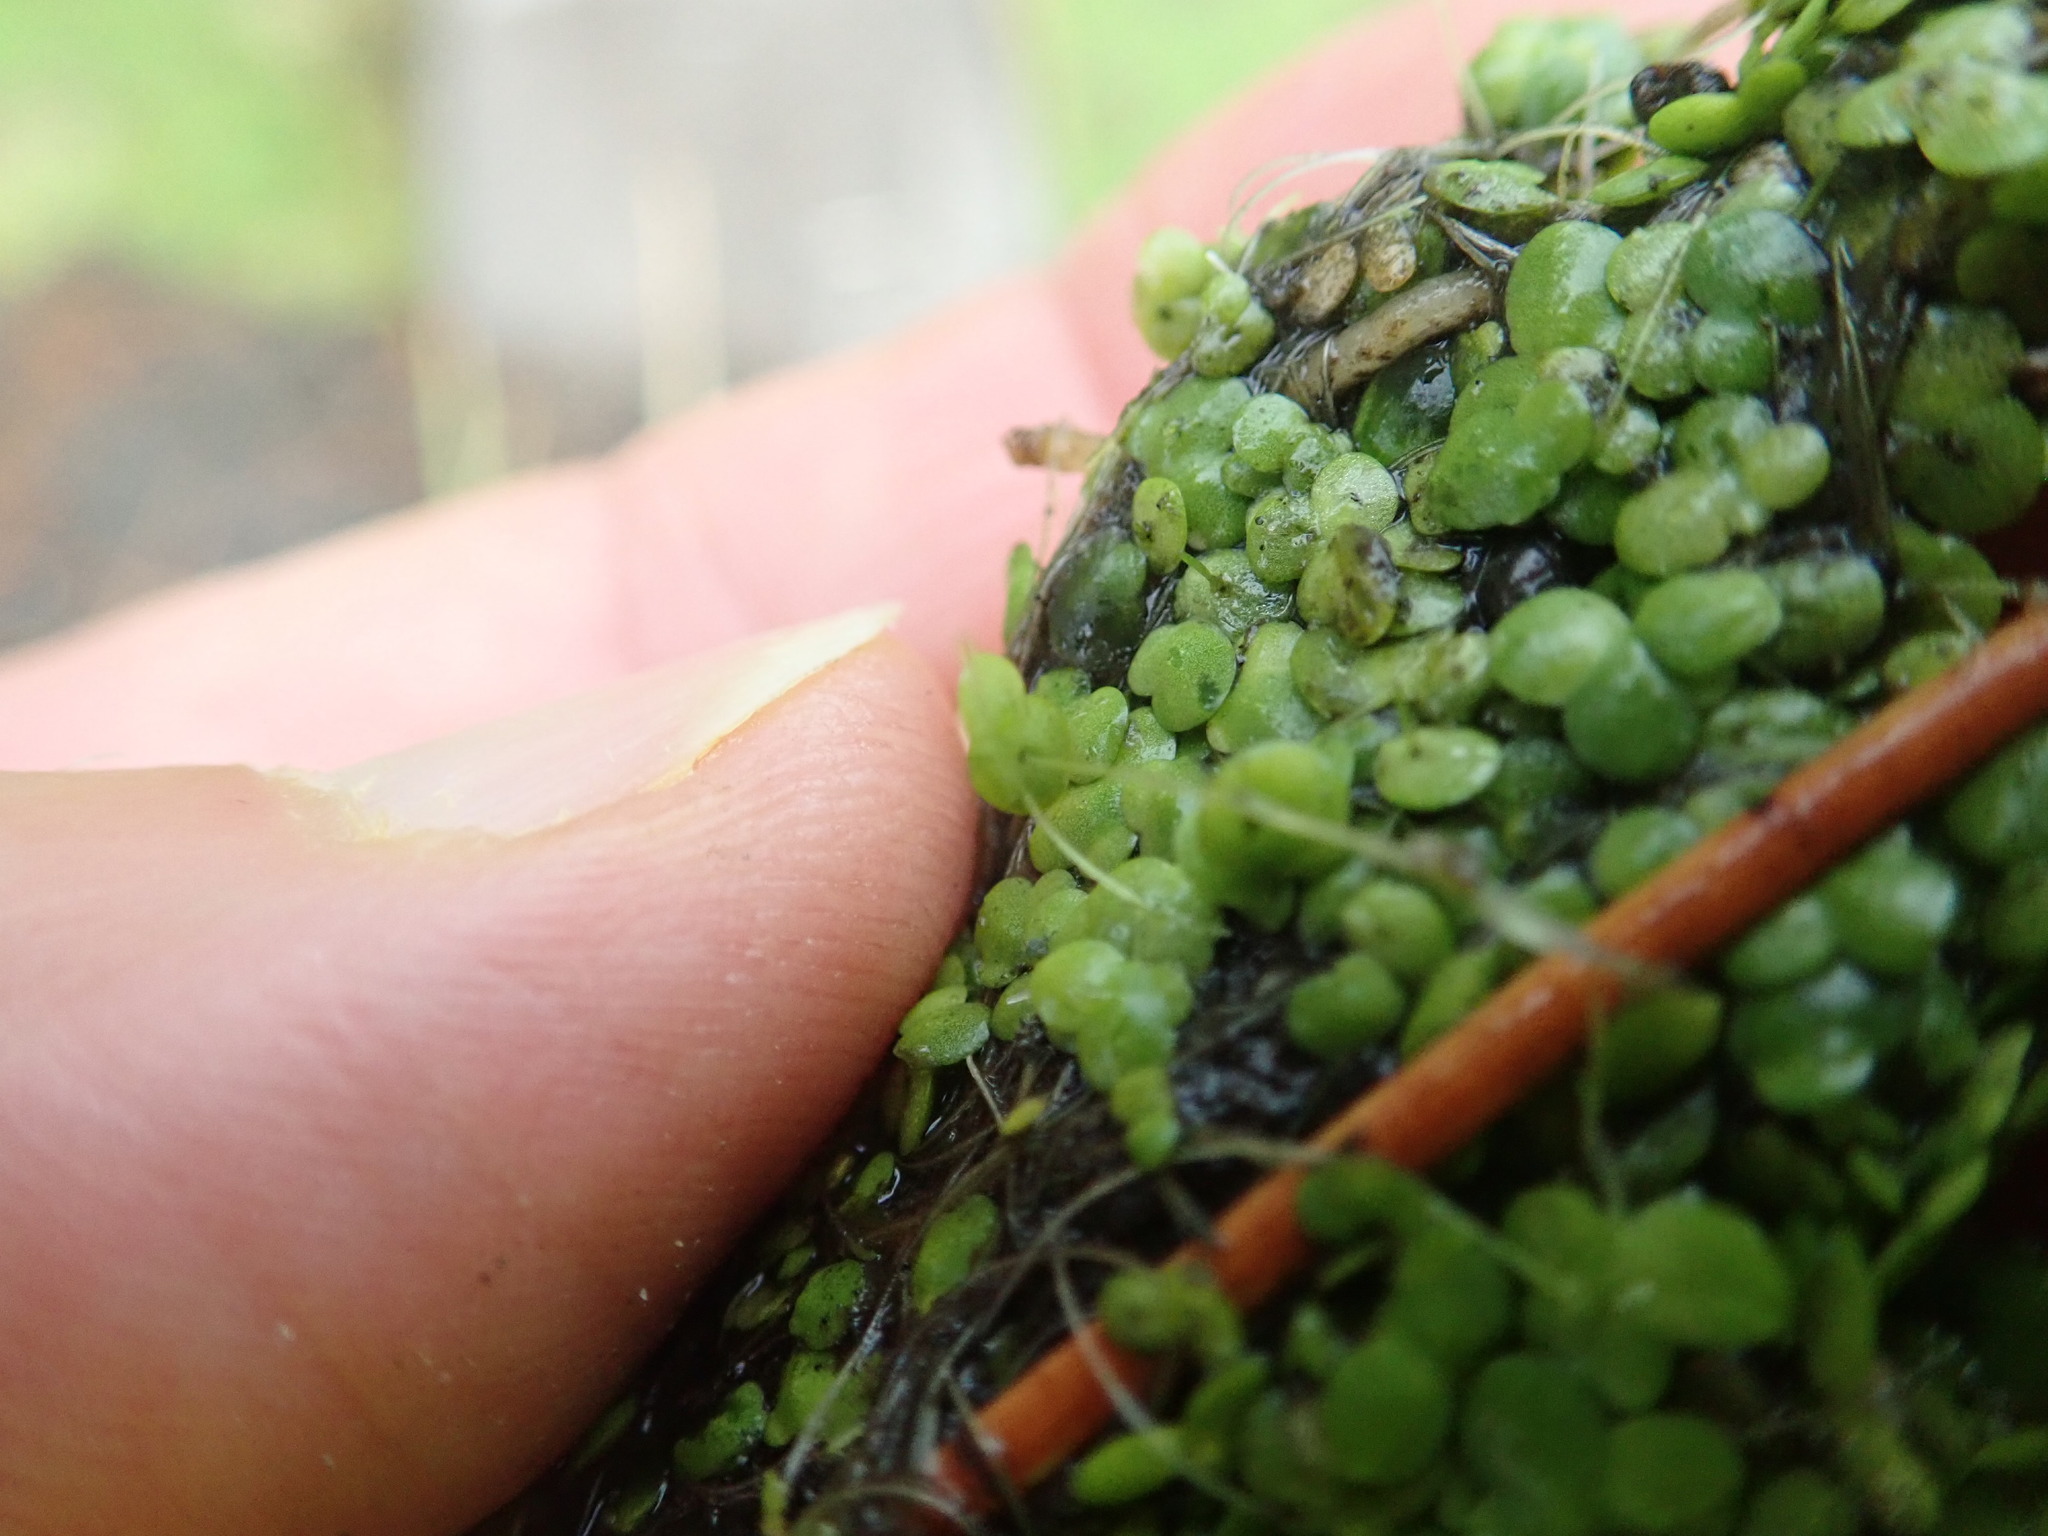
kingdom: Plantae
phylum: Tracheophyta
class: Liliopsida
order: Alismatales
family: Araceae
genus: Lemna
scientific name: Lemna disperma
